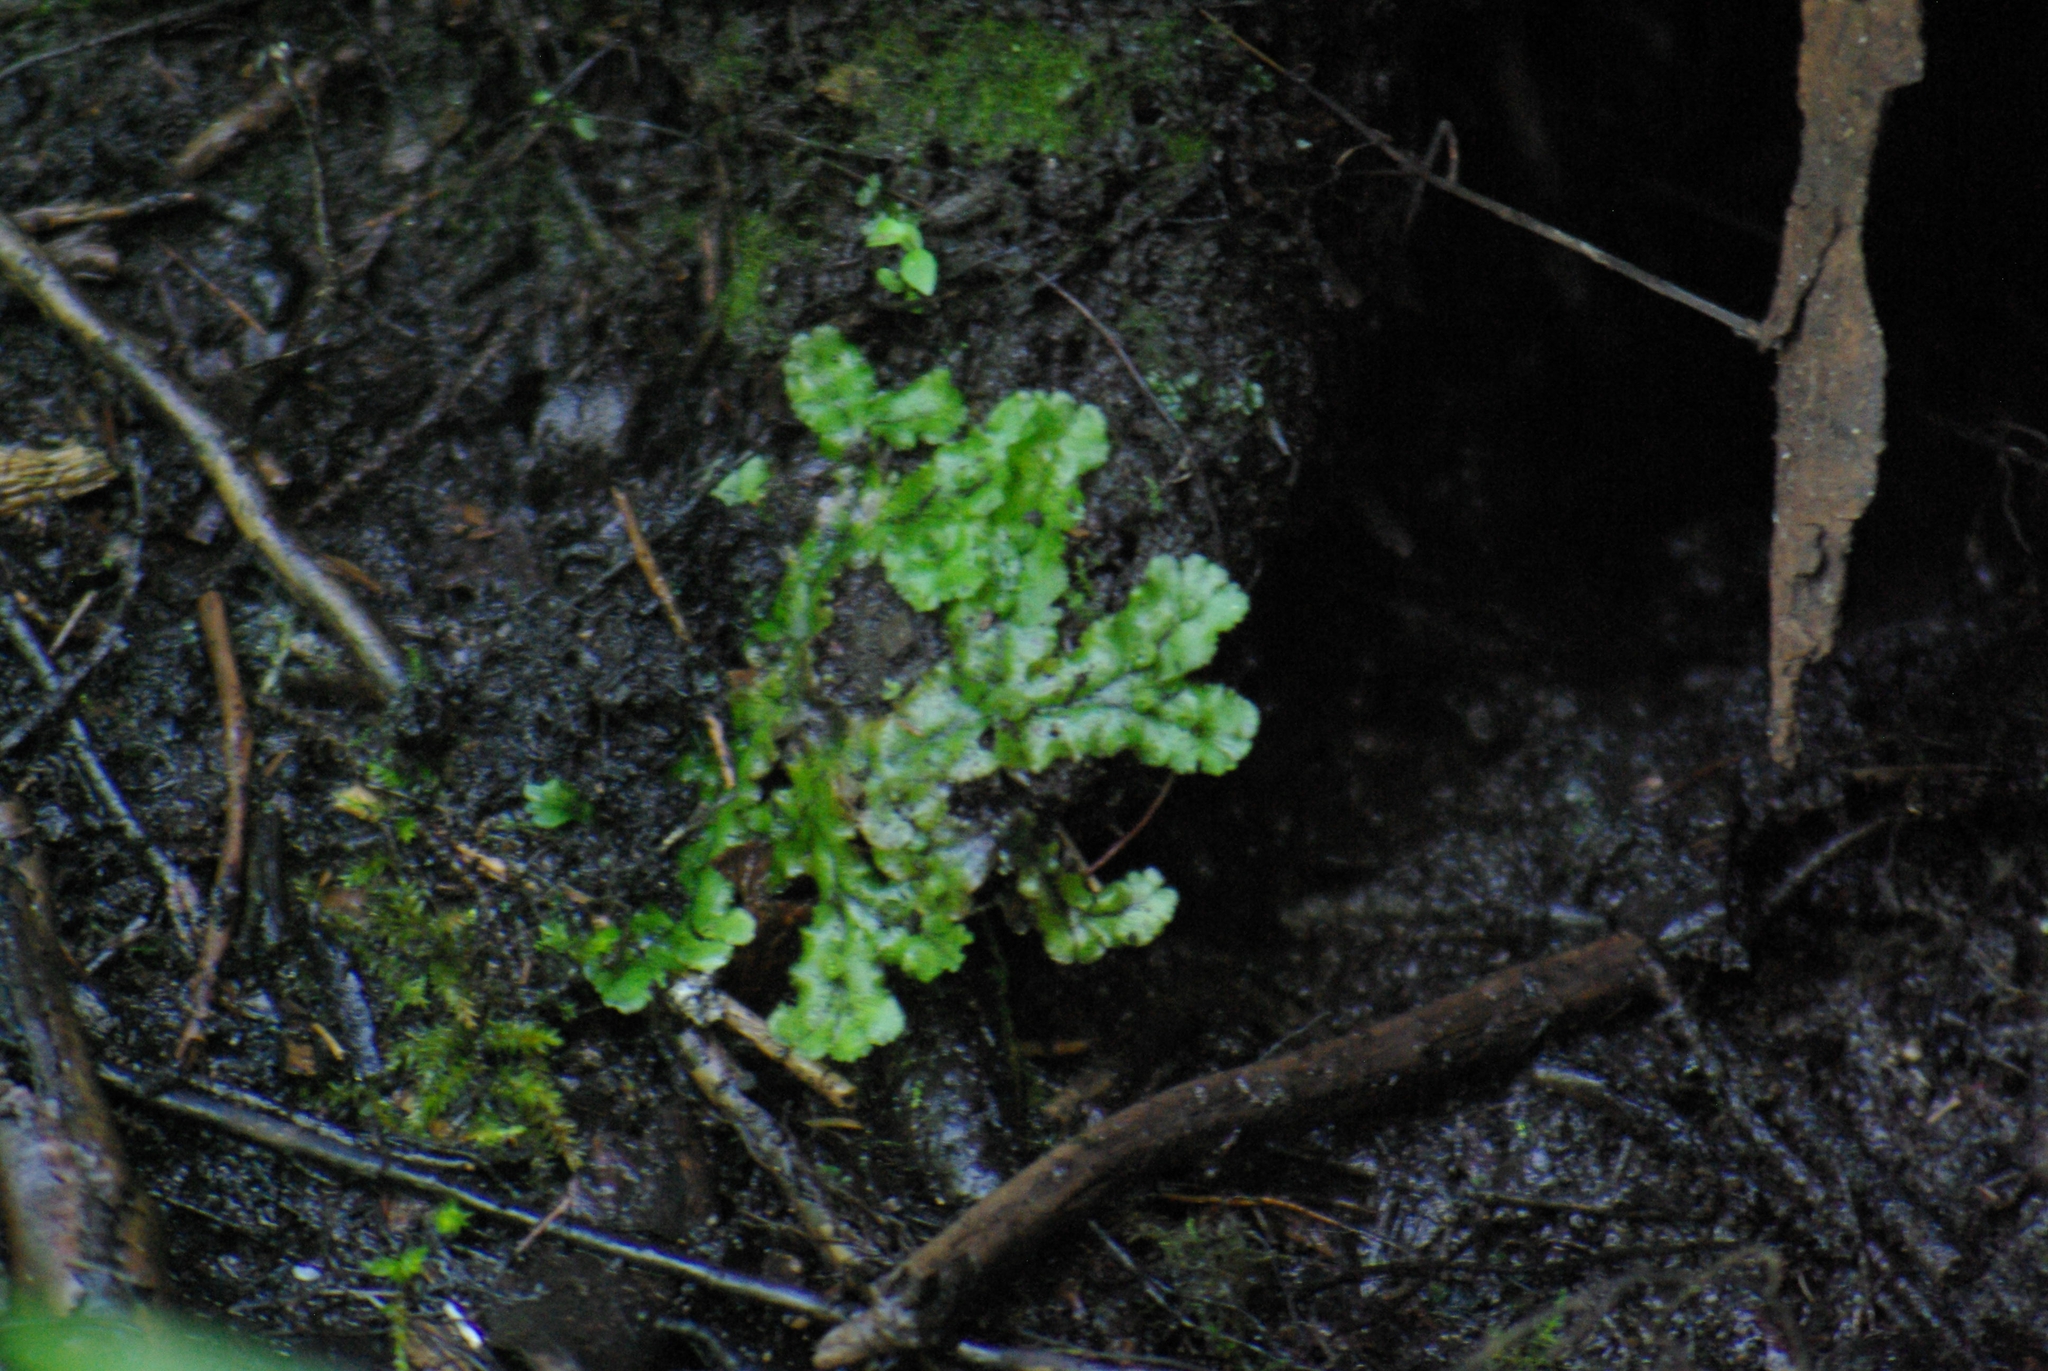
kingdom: Plantae
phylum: Marchantiophyta
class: Marchantiopsida
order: Marchantiales
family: Marchantiaceae
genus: Marchantia
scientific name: Marchantia polymorpha
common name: Common liverwort
